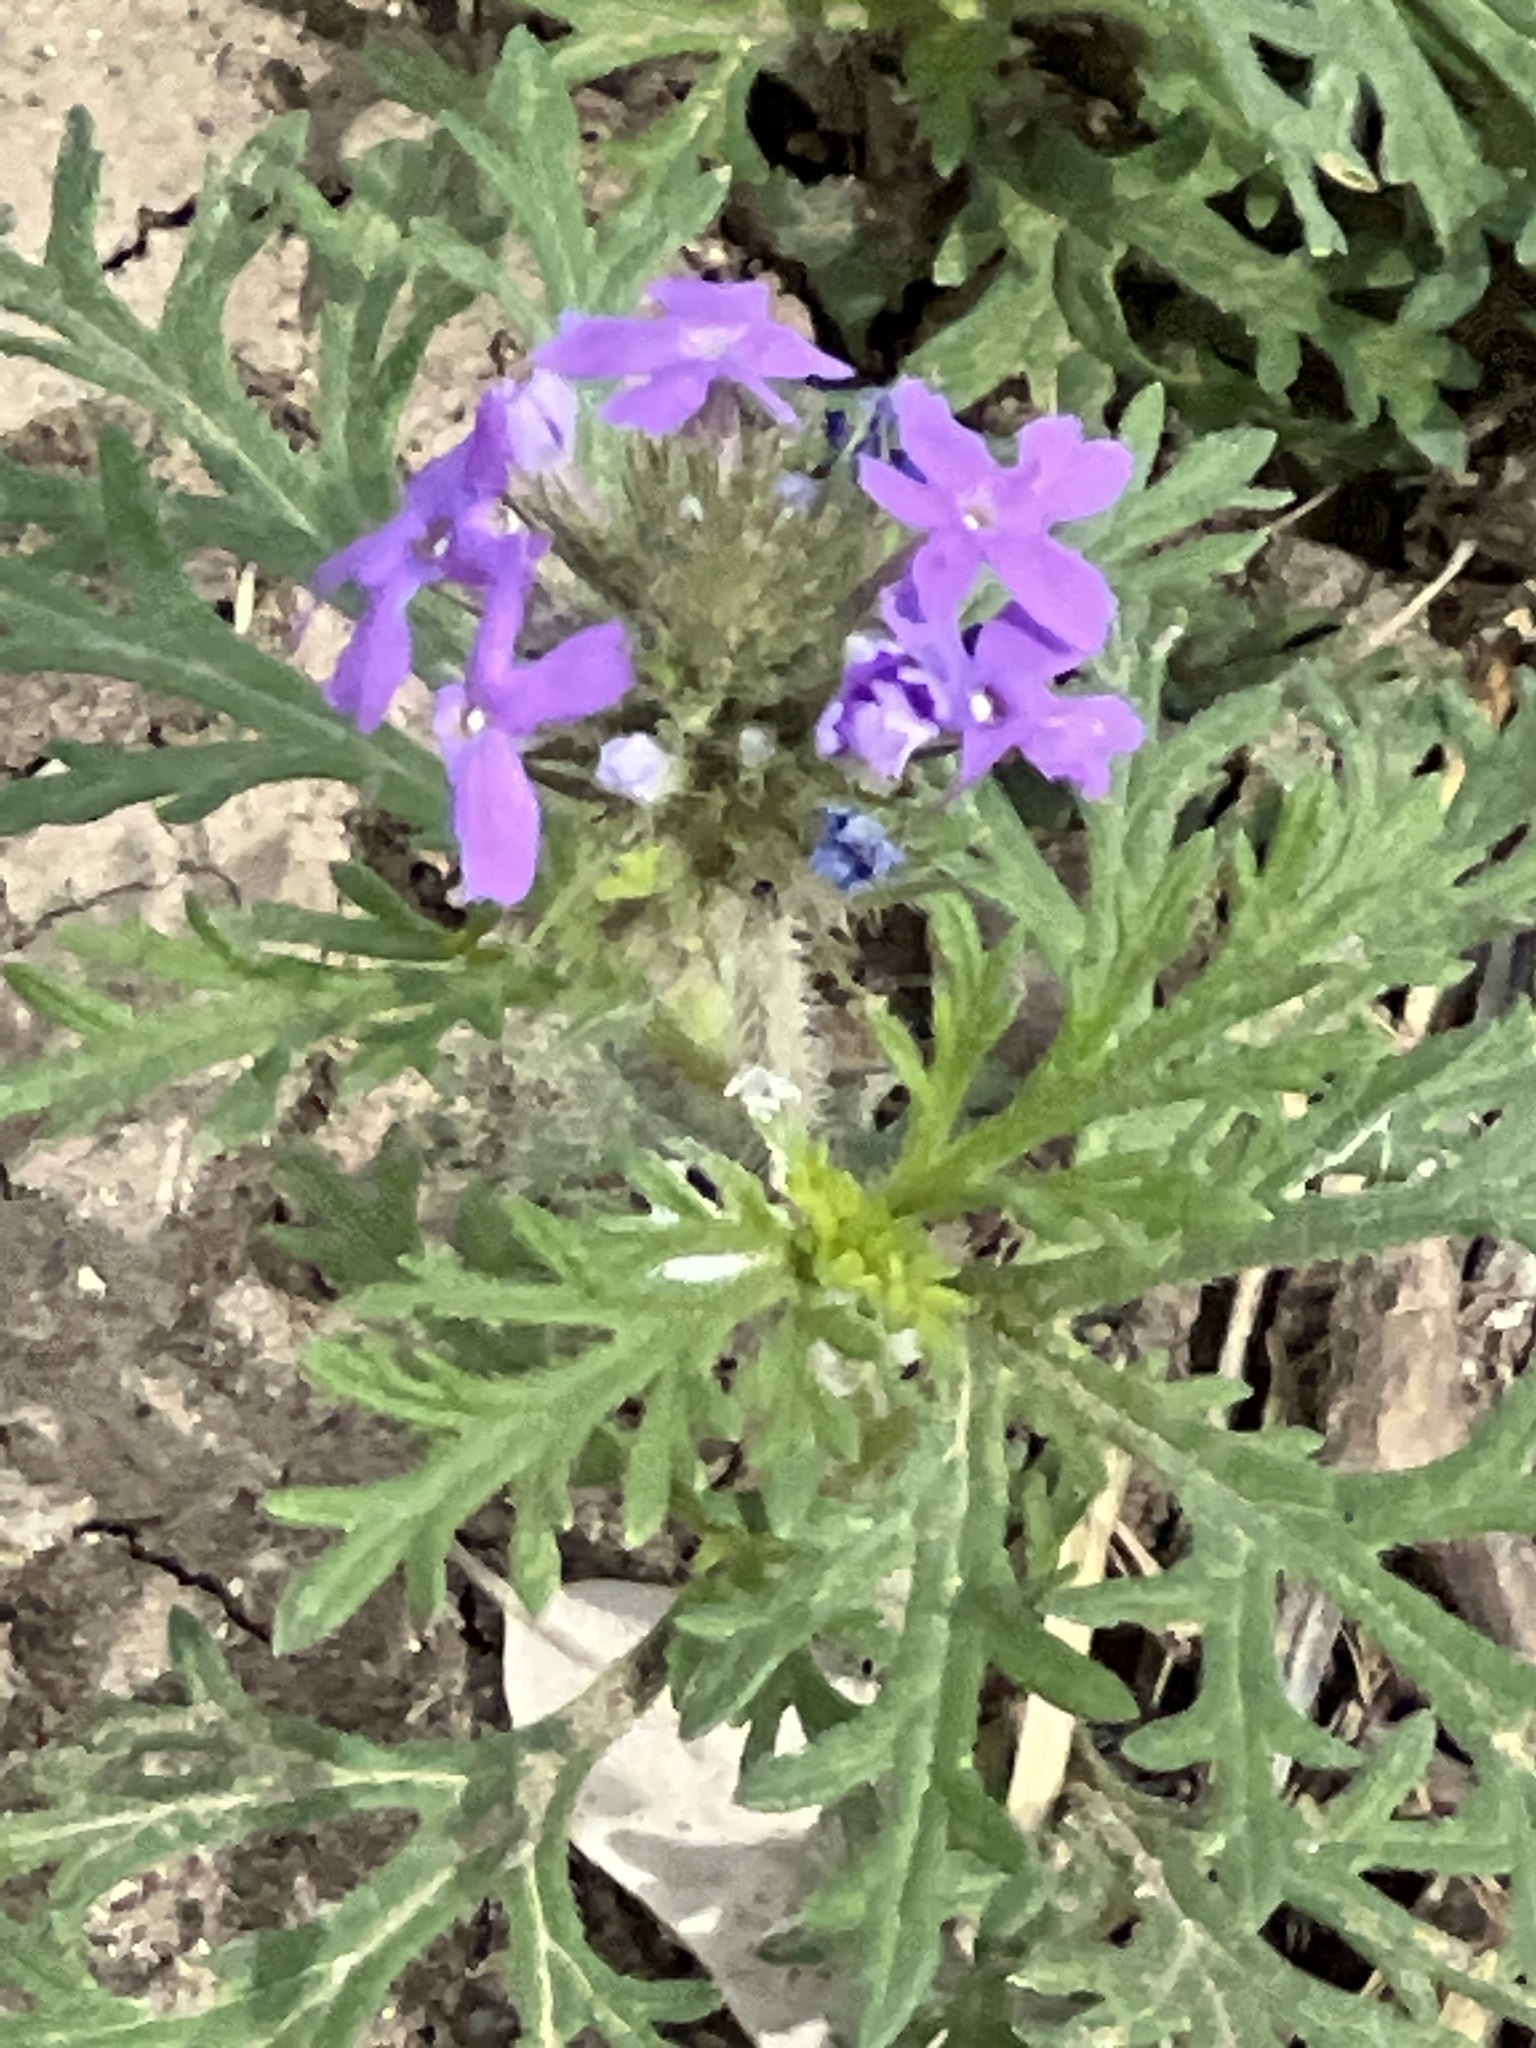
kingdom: Plantae
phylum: Tracheophyta
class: Magnoliopsida
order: Lamiales
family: Verbenaceae
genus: Verbena
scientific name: Verbena bipinnatifida
